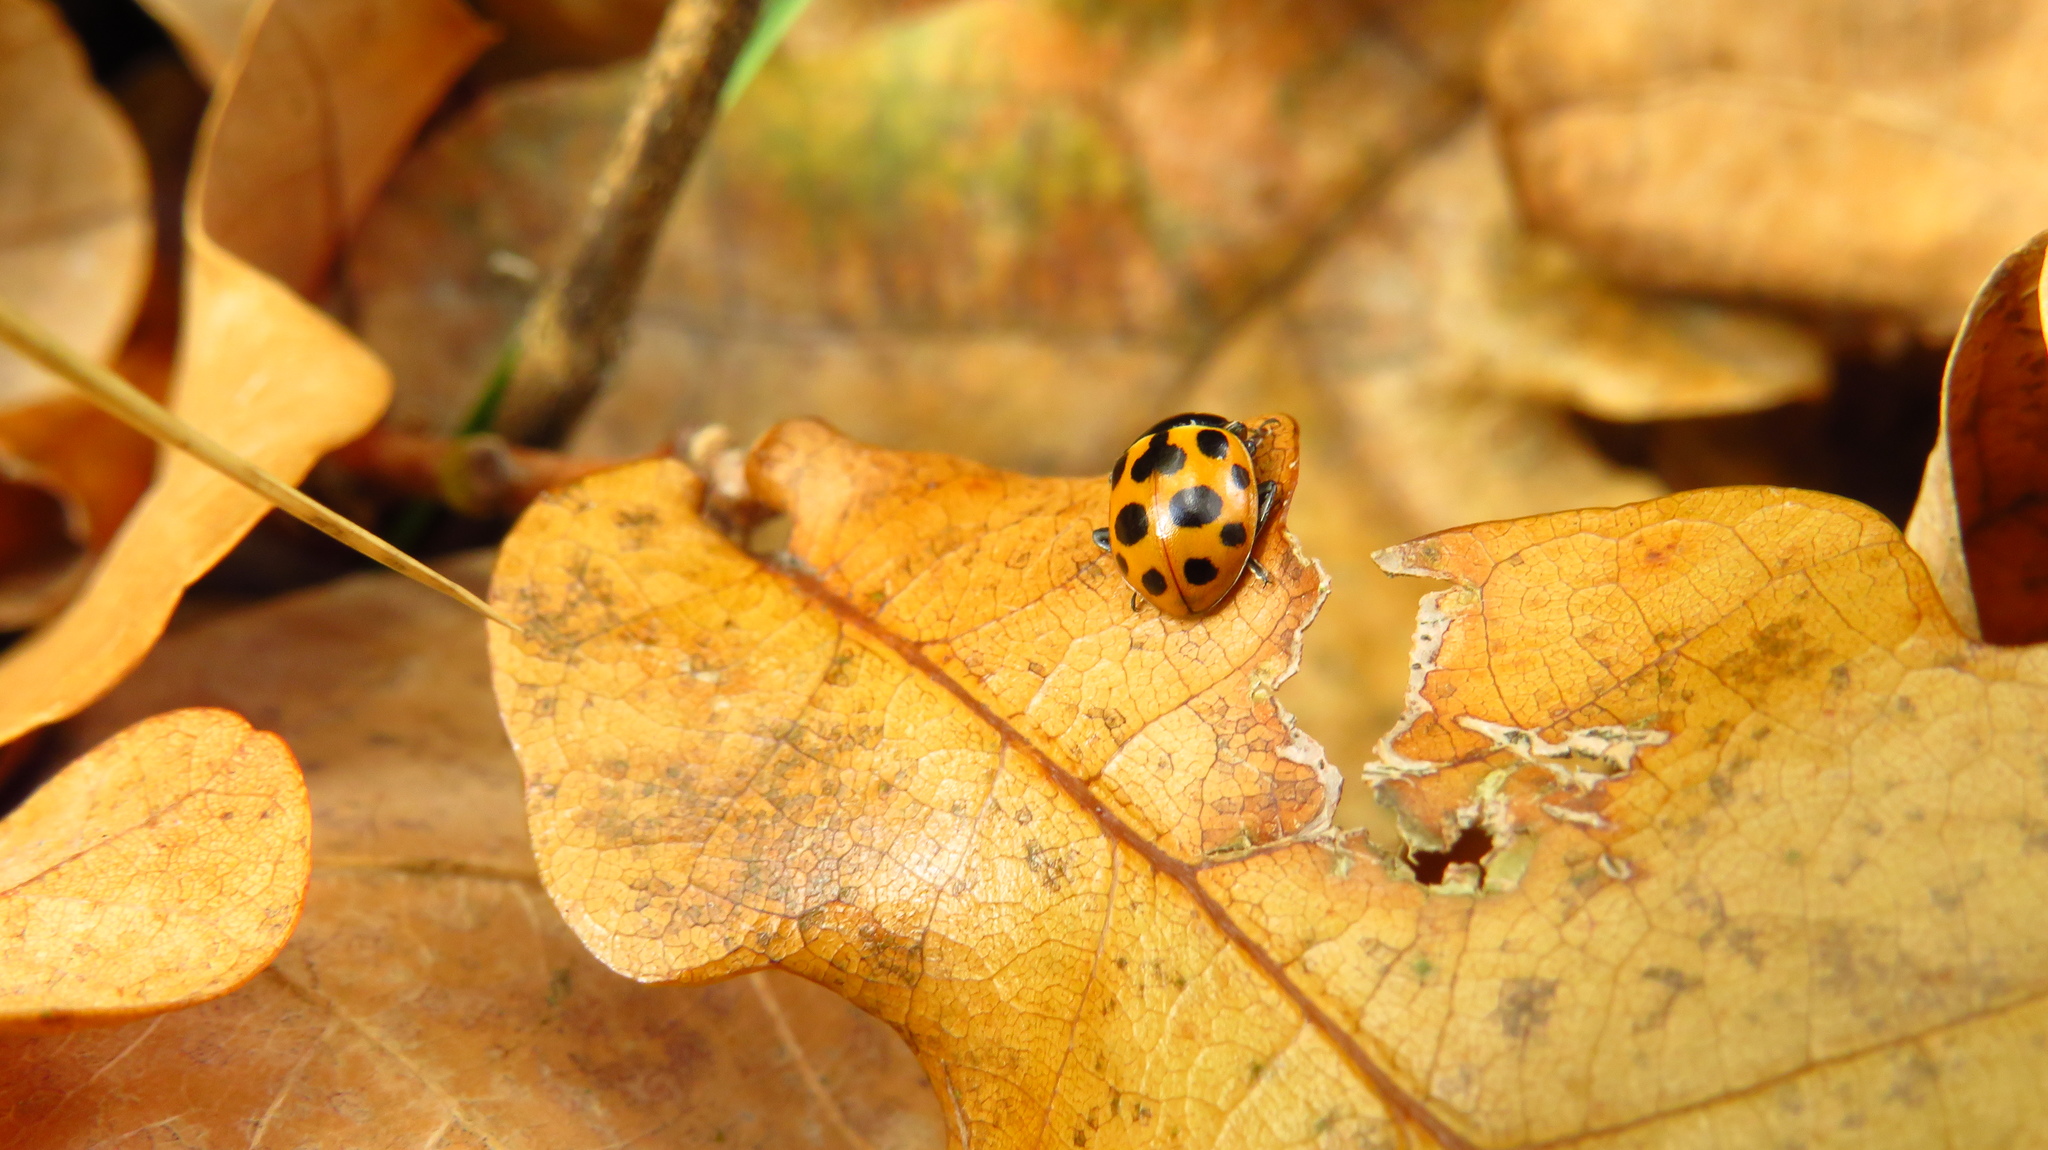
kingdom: Animalia
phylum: Arthropoda
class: Insecta
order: Coleoptera
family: Coccinellidae
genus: Ceratomegilla
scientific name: Ceratomegilla notata
